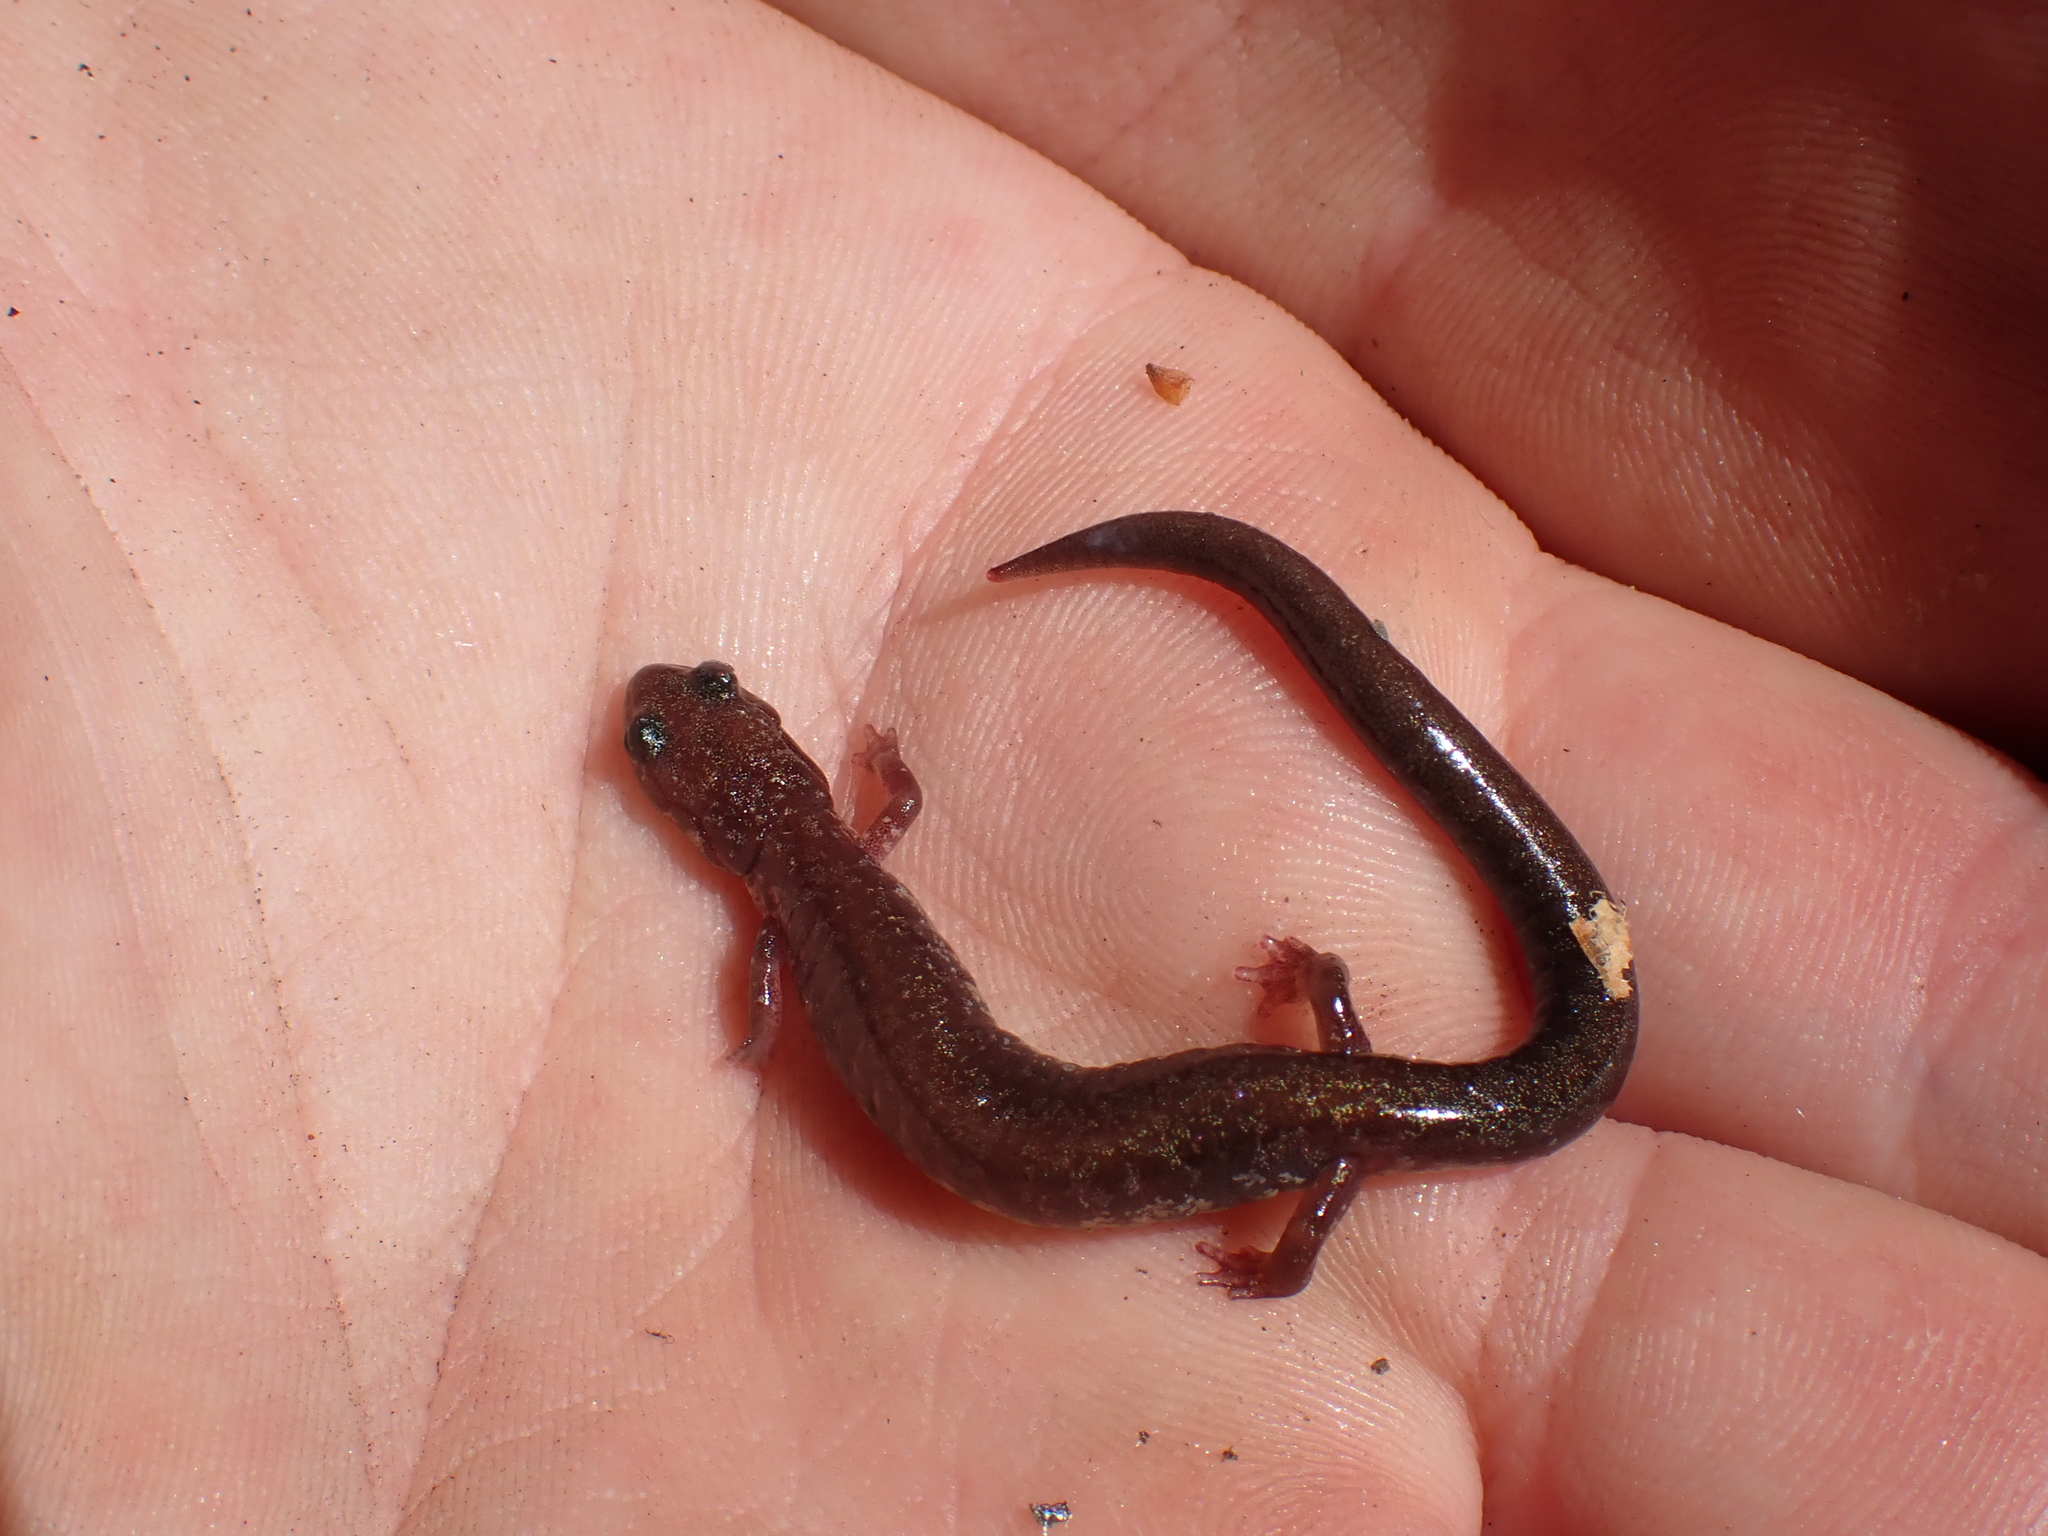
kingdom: Animalia
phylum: Chordata
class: Amphibia
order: Caudata
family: Plethodontidae
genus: Plethodon
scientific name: Plethodon cinereus
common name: Redback salamander
